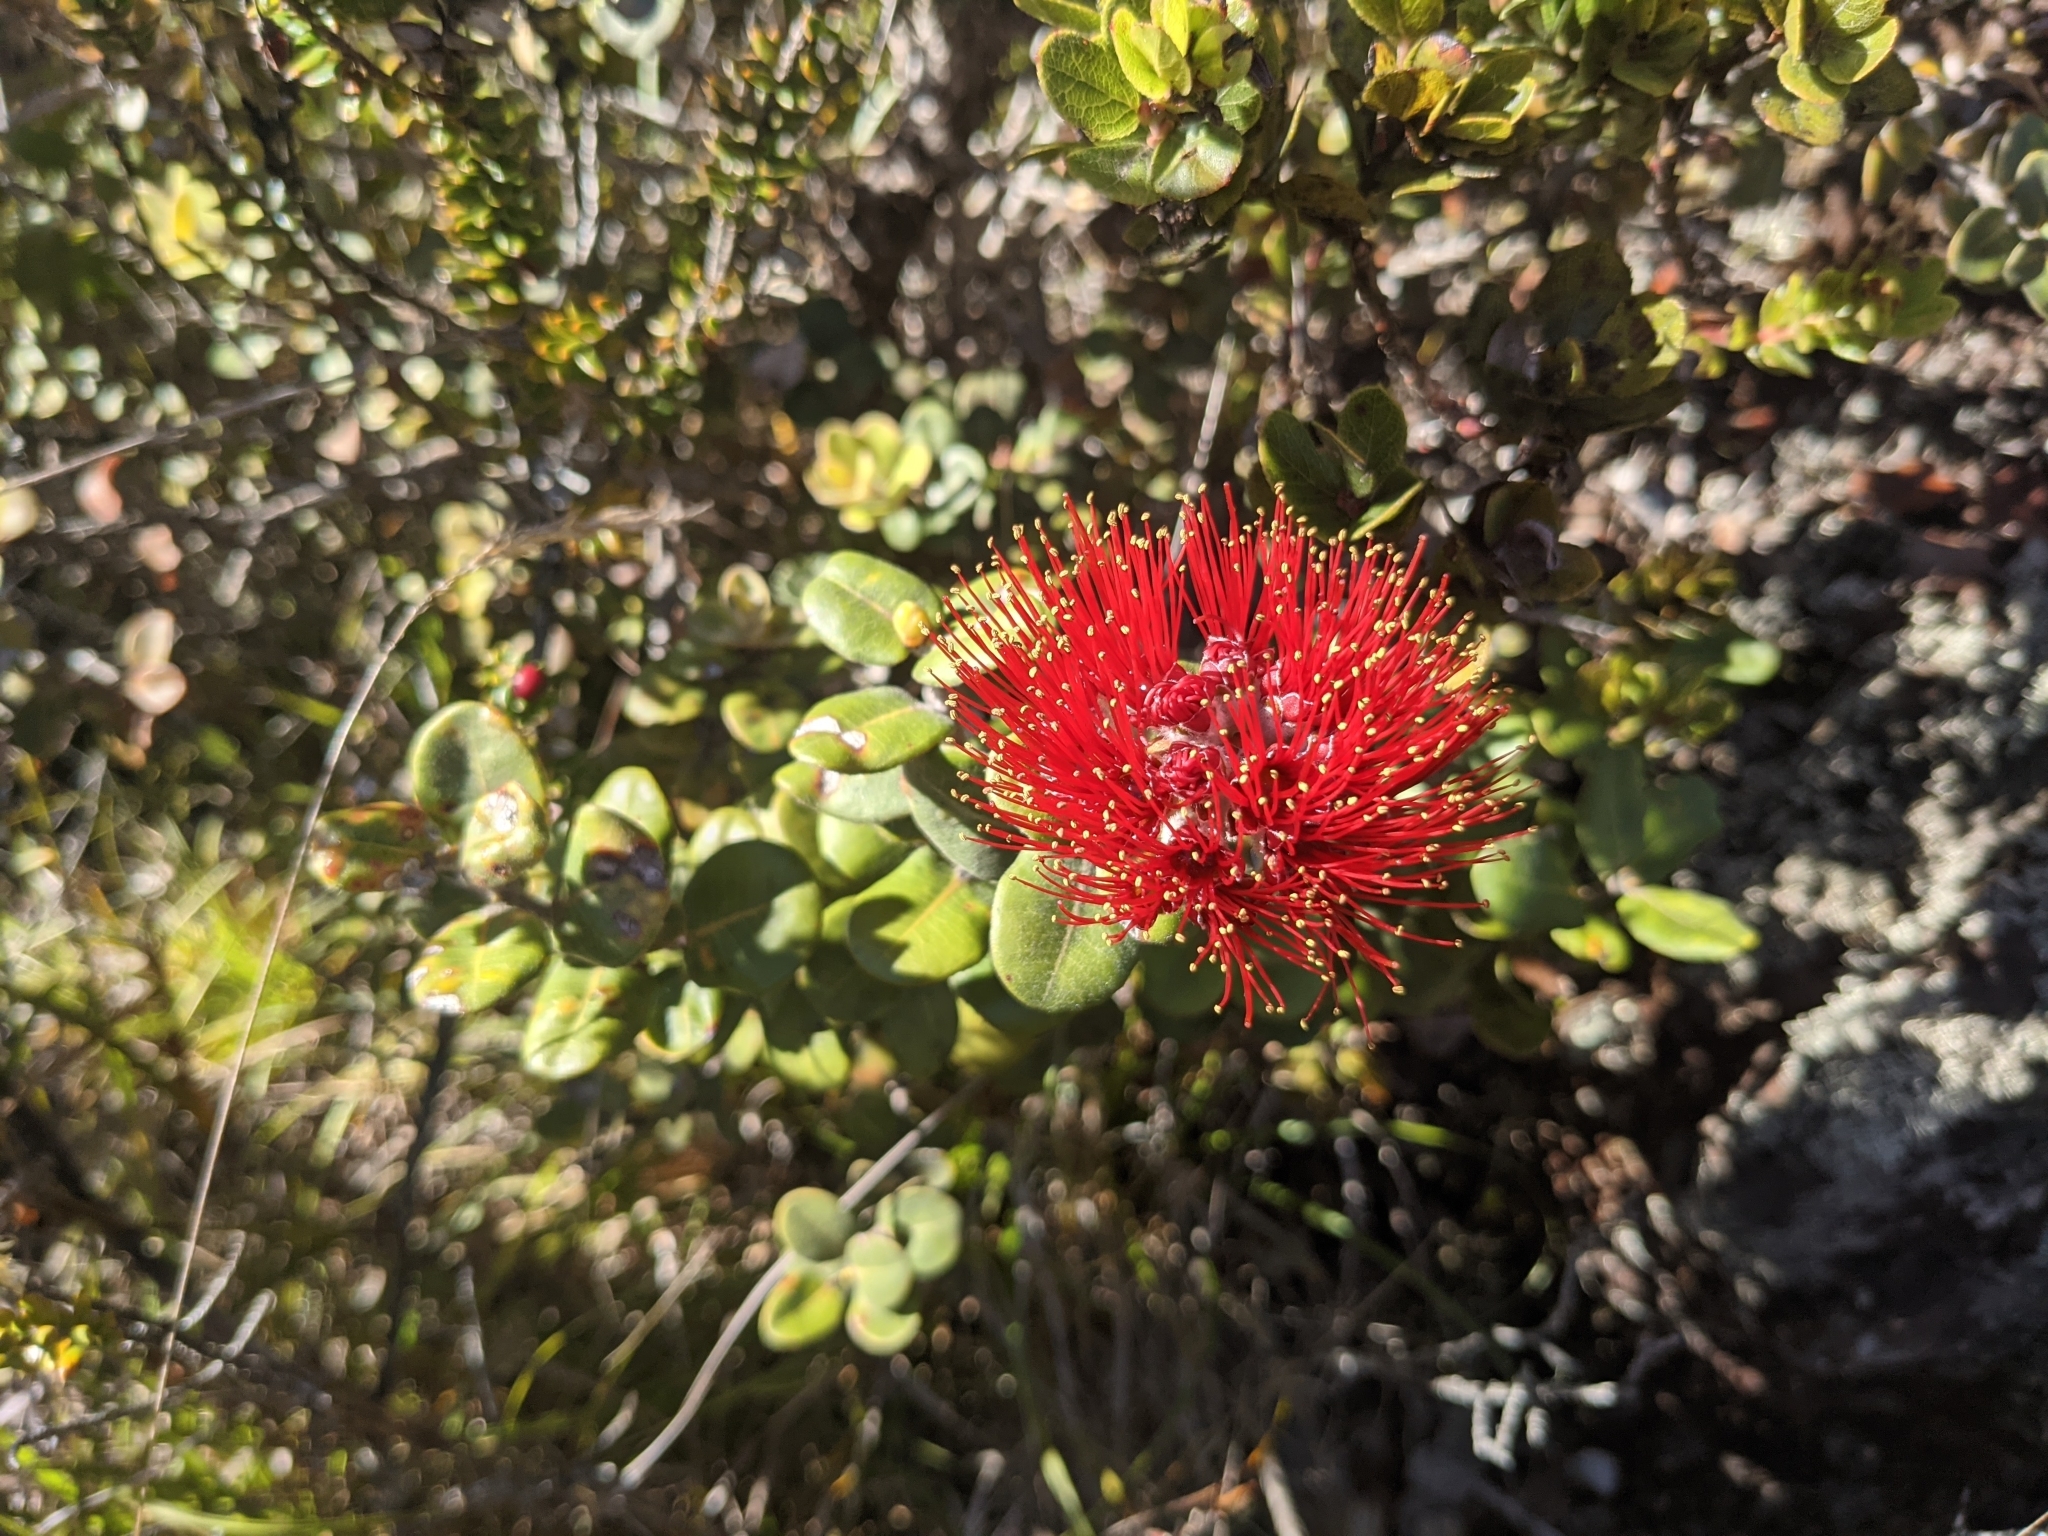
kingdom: Plantae
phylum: Tracheophyta
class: Magnoliopsida
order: Myrtales
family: Myrtaceae
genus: Metrosideros
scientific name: Metrosideros polymorpha
